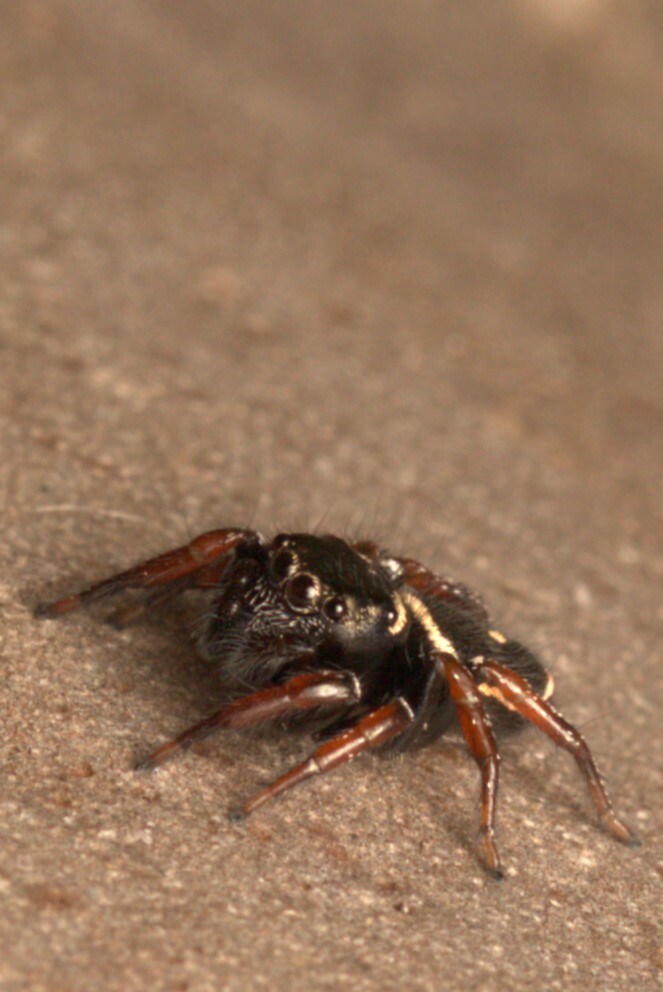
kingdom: Animalia
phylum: Arthropoda
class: Arachnida
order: Araneae
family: Salticidae
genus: Zenodorus
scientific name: Zenodorus orbiculatus
